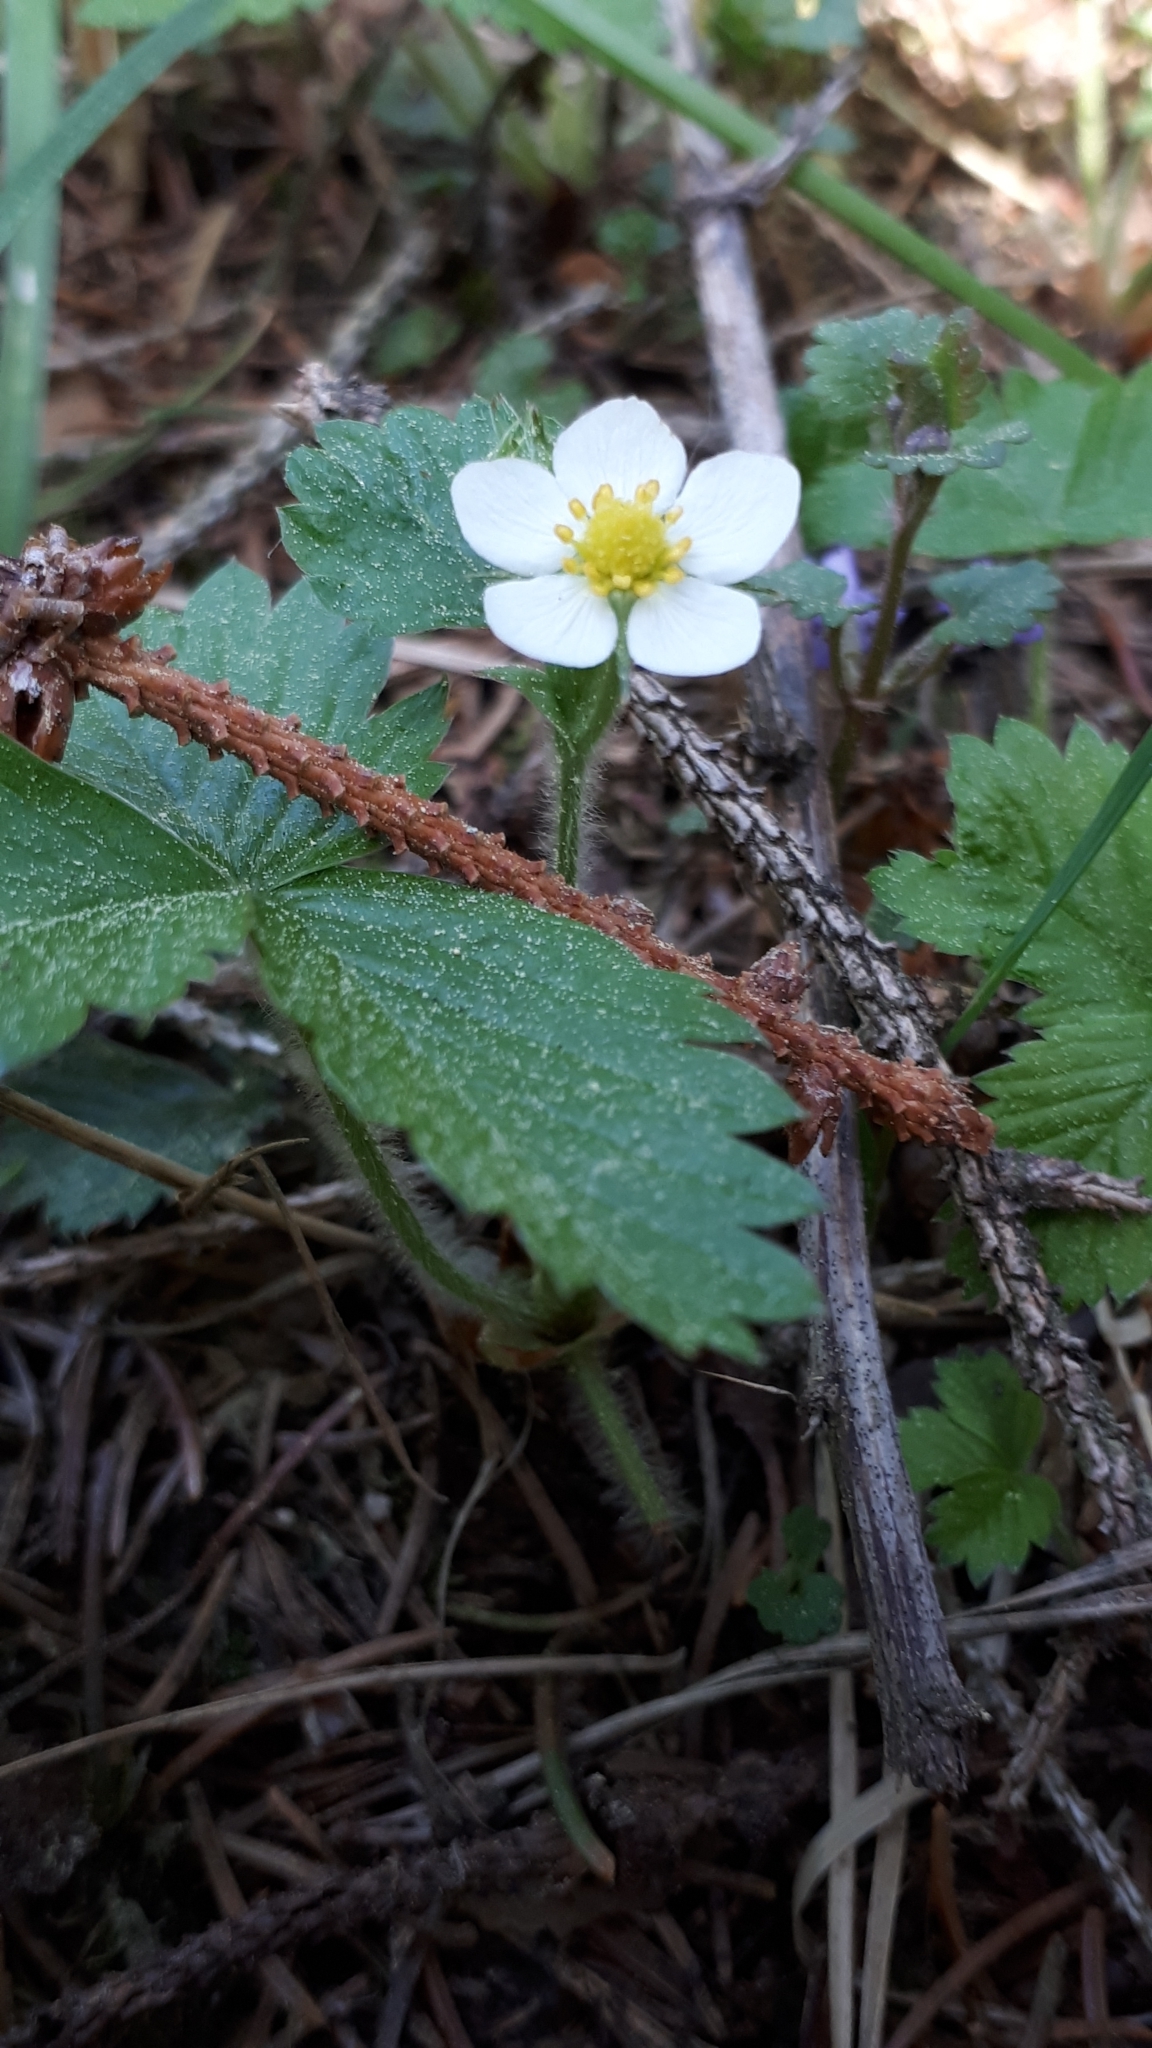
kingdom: Plantae
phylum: Tracheophyta
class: Magnoliopsida
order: Rosales
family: Rosaceae
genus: Fragaria
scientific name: Fragaria vesca
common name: Wild strawberry
